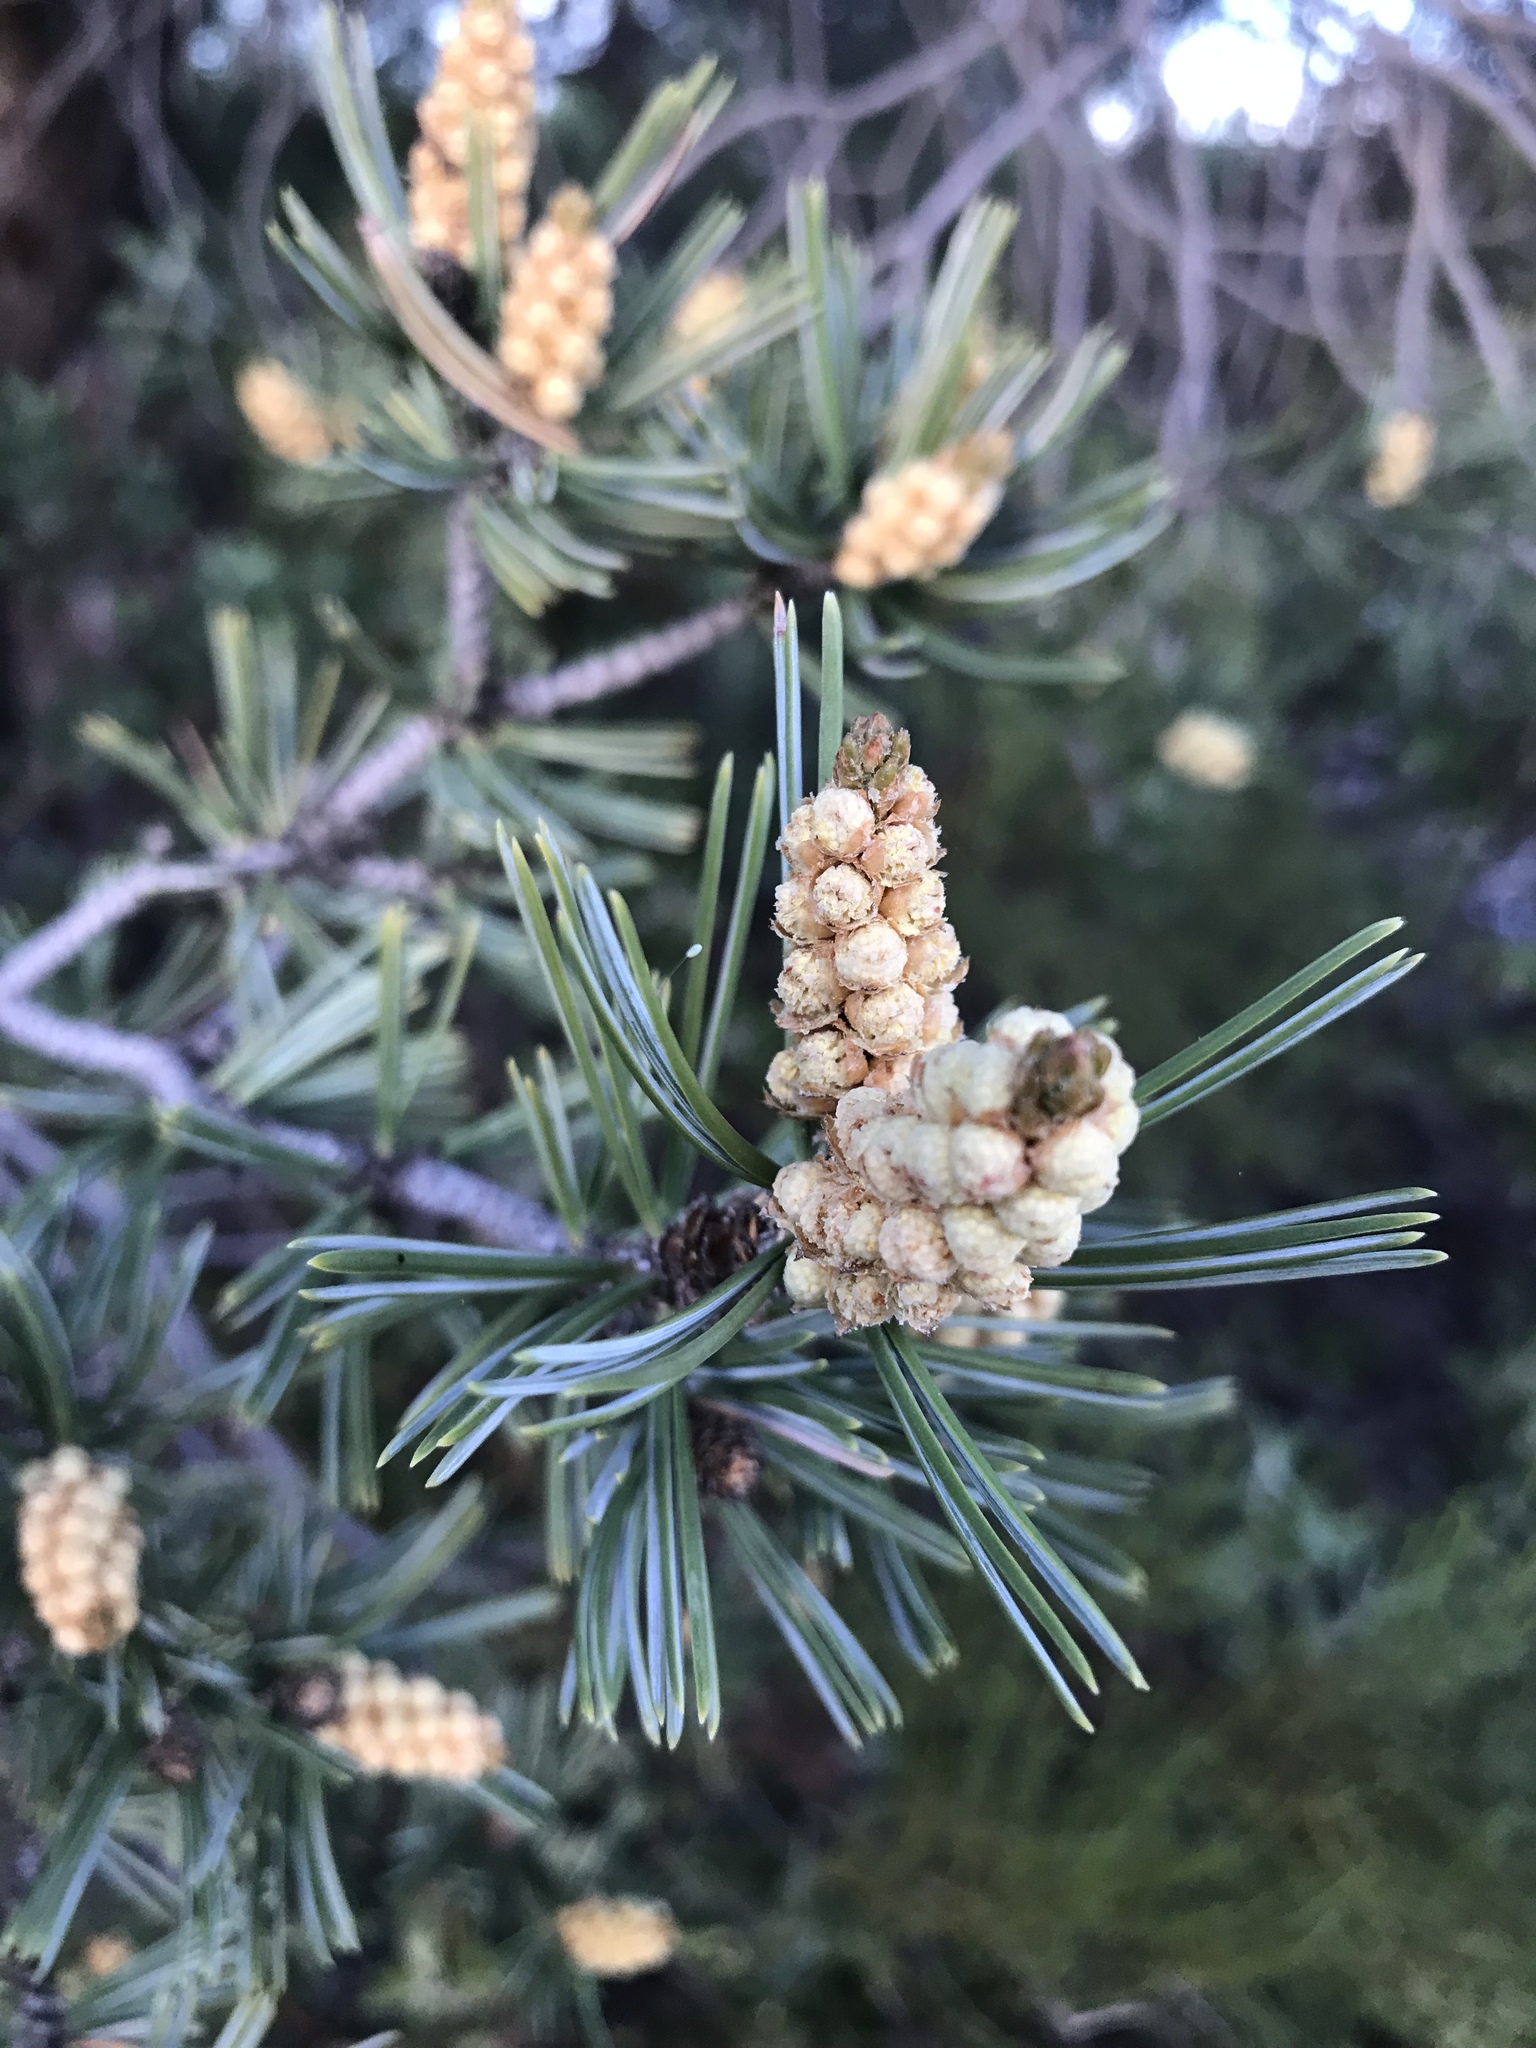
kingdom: Plantae
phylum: Tracheophyta
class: Pinopsida
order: Pinales
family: Pinaceae
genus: Pinus
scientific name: Pinus quadrifolia
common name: Parry pinyon
